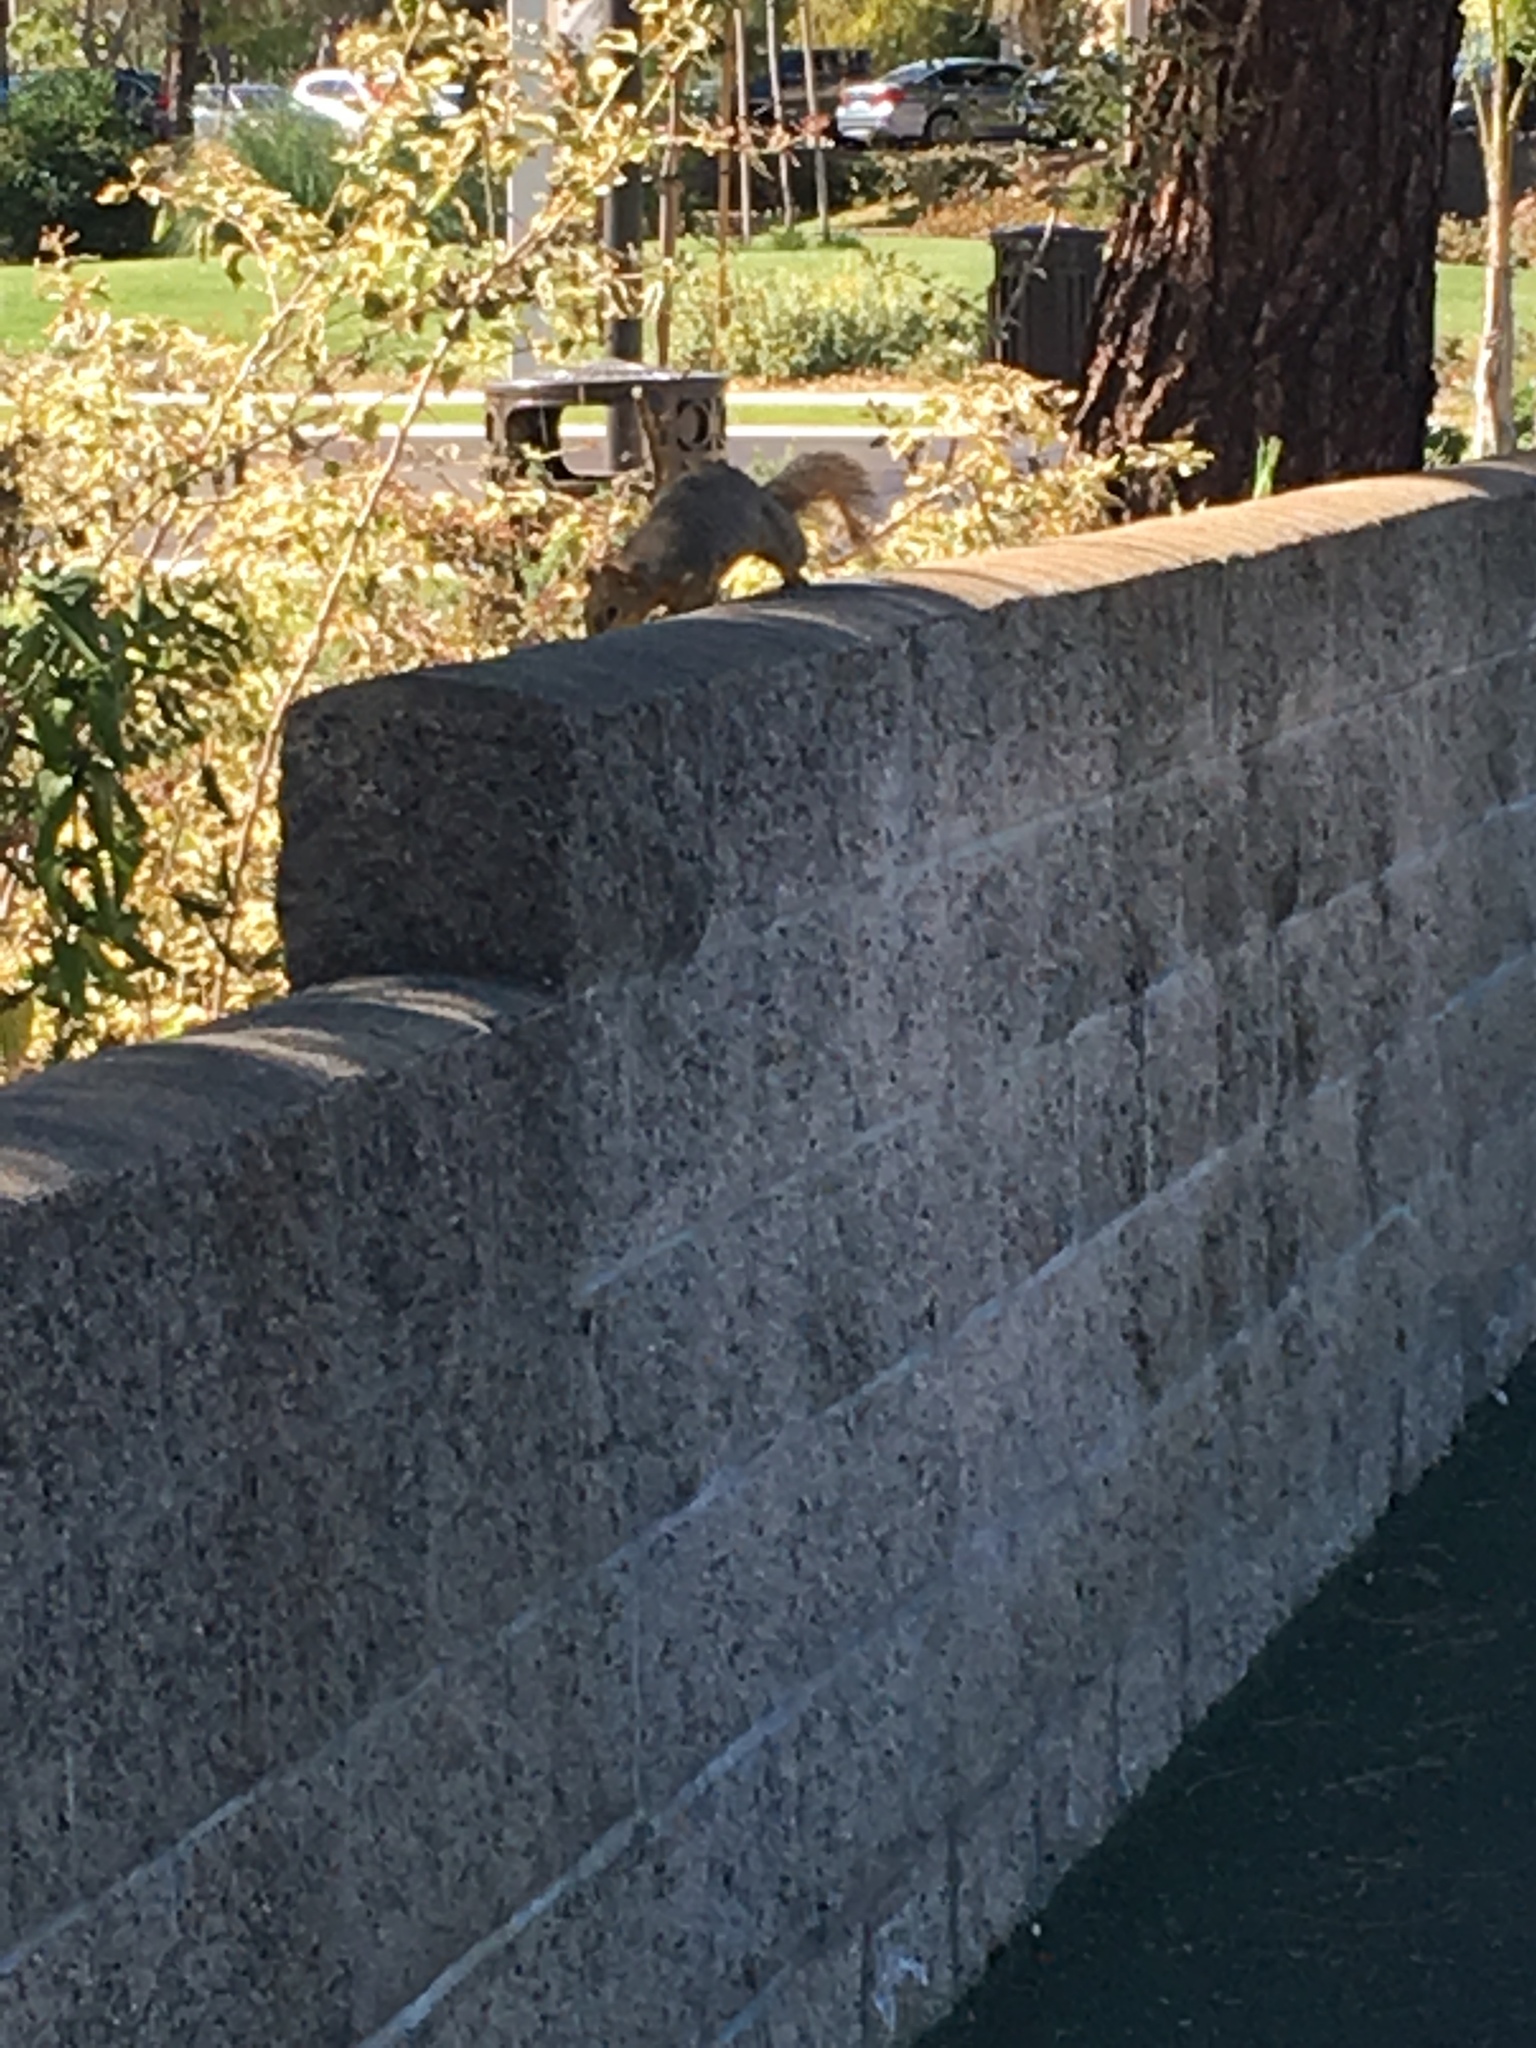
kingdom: Animalia
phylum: Chordata
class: Mammalia
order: Rodentia
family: Sciuridae
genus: Sciurus
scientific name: Sciurus niger
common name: Fox squirrel
